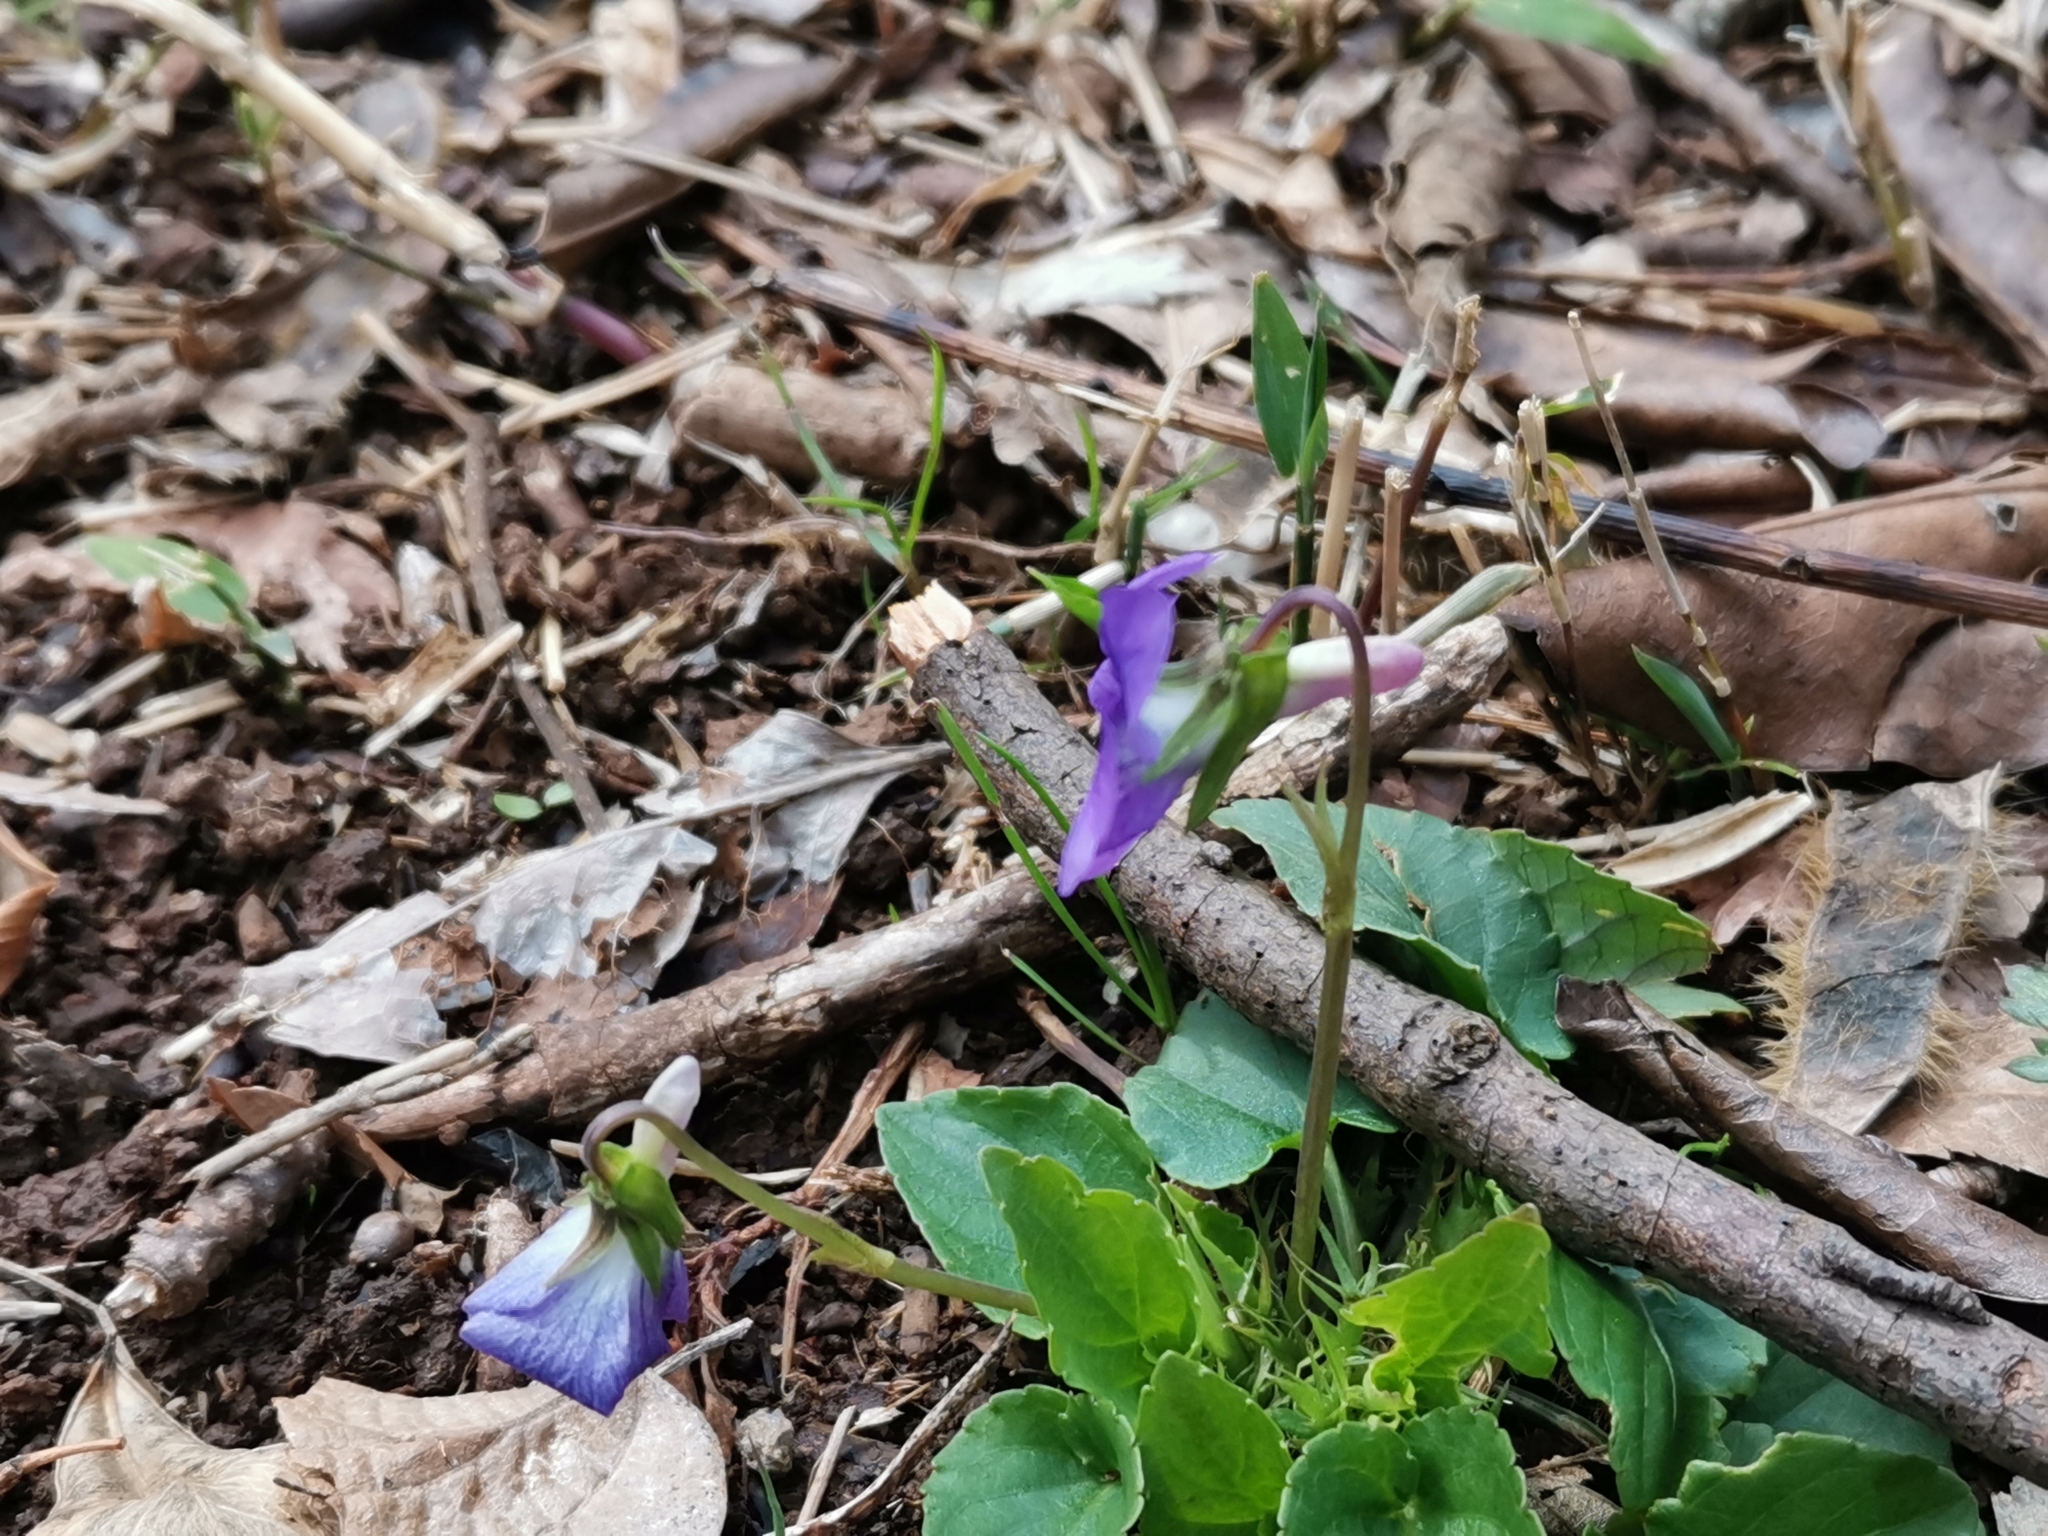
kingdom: Plantae
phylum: Tracheophyta
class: Magnoliopsida
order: Malpighiales
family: Violaceae
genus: Viola
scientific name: Viola obtusa
